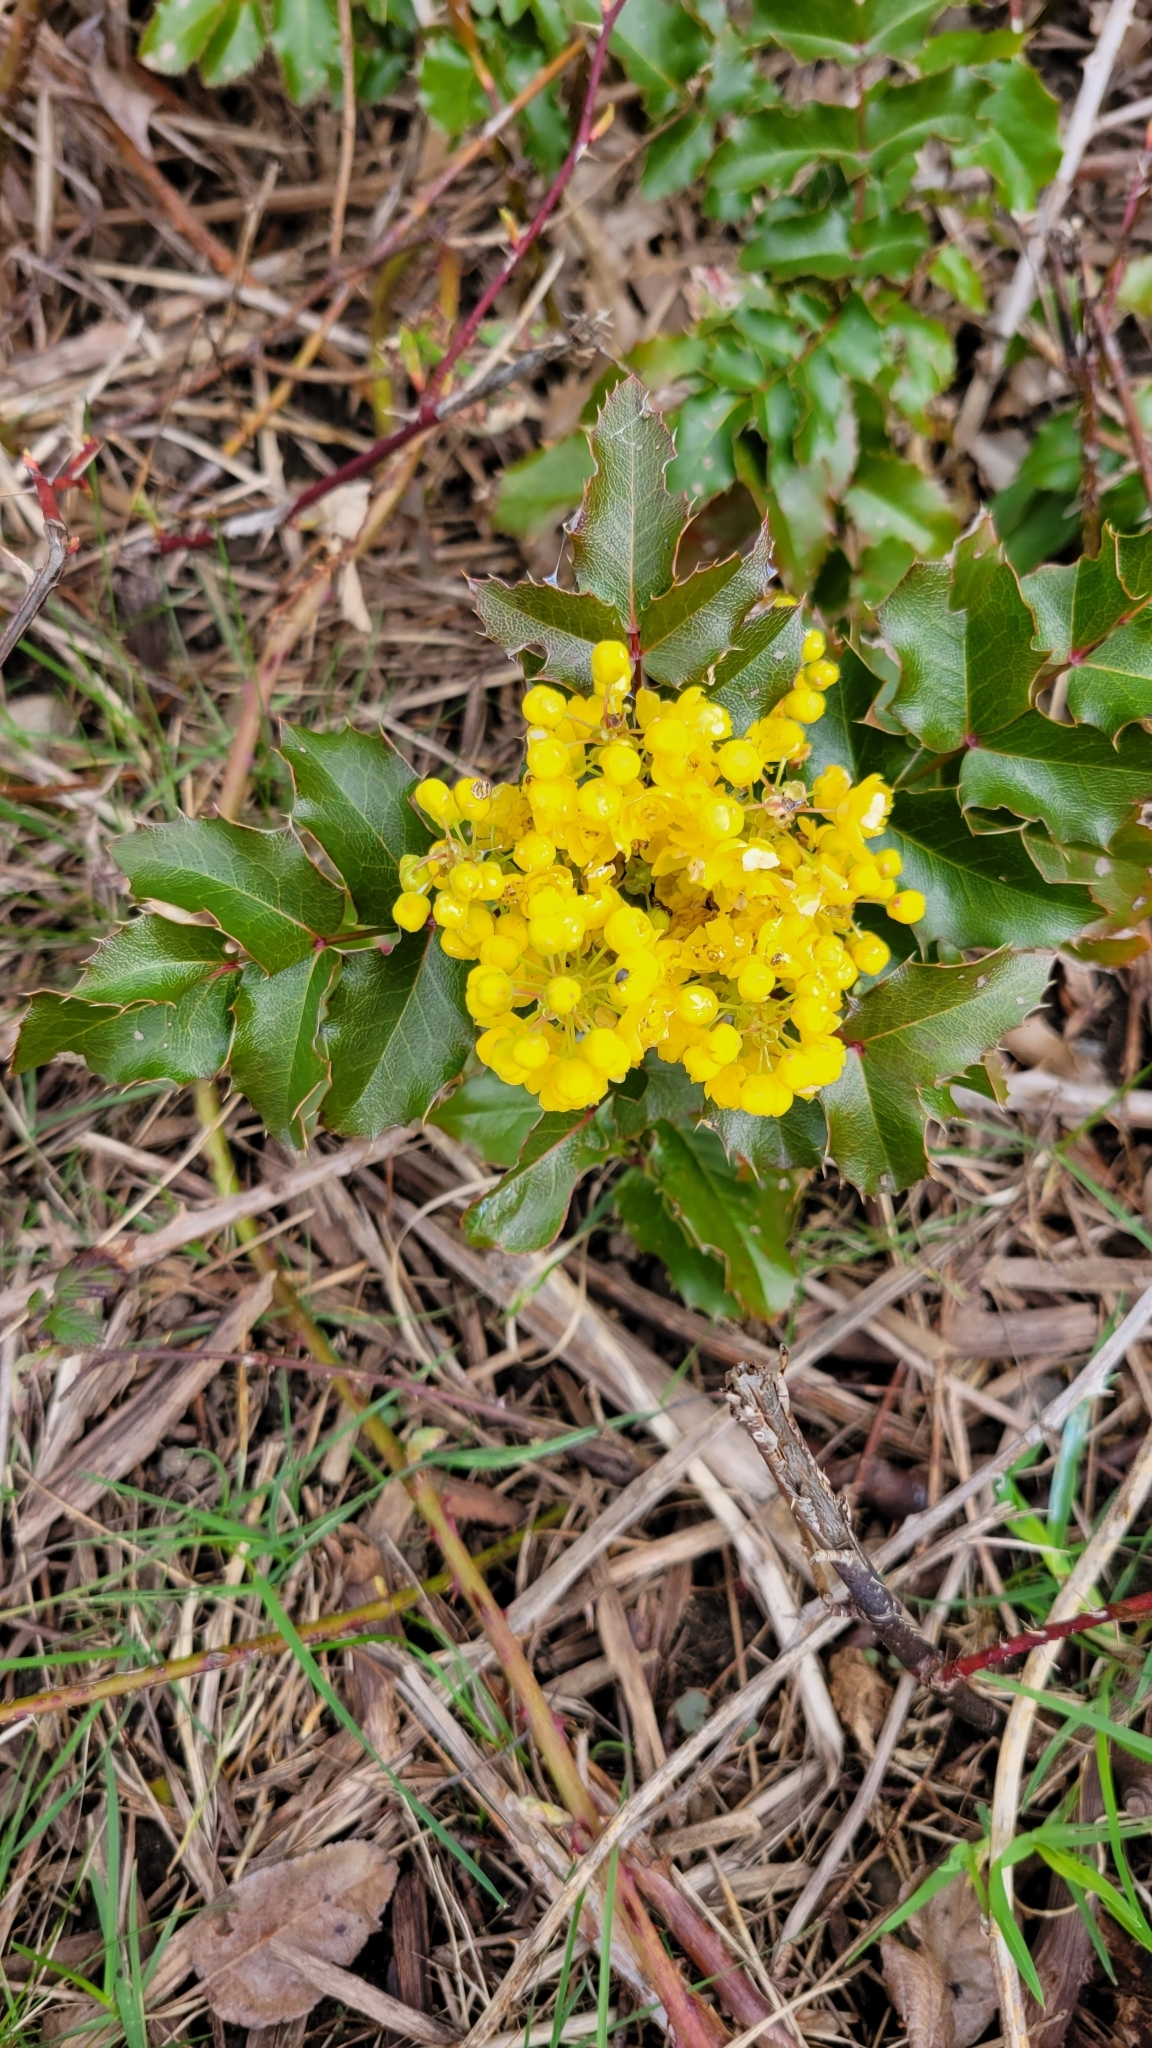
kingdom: Plantae
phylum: Tracheophyta
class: Magnoliopsida
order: Ranunculales
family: Berberidaceae
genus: Mahonia
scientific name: Mahonia aquifolium
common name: Oregon-grape
